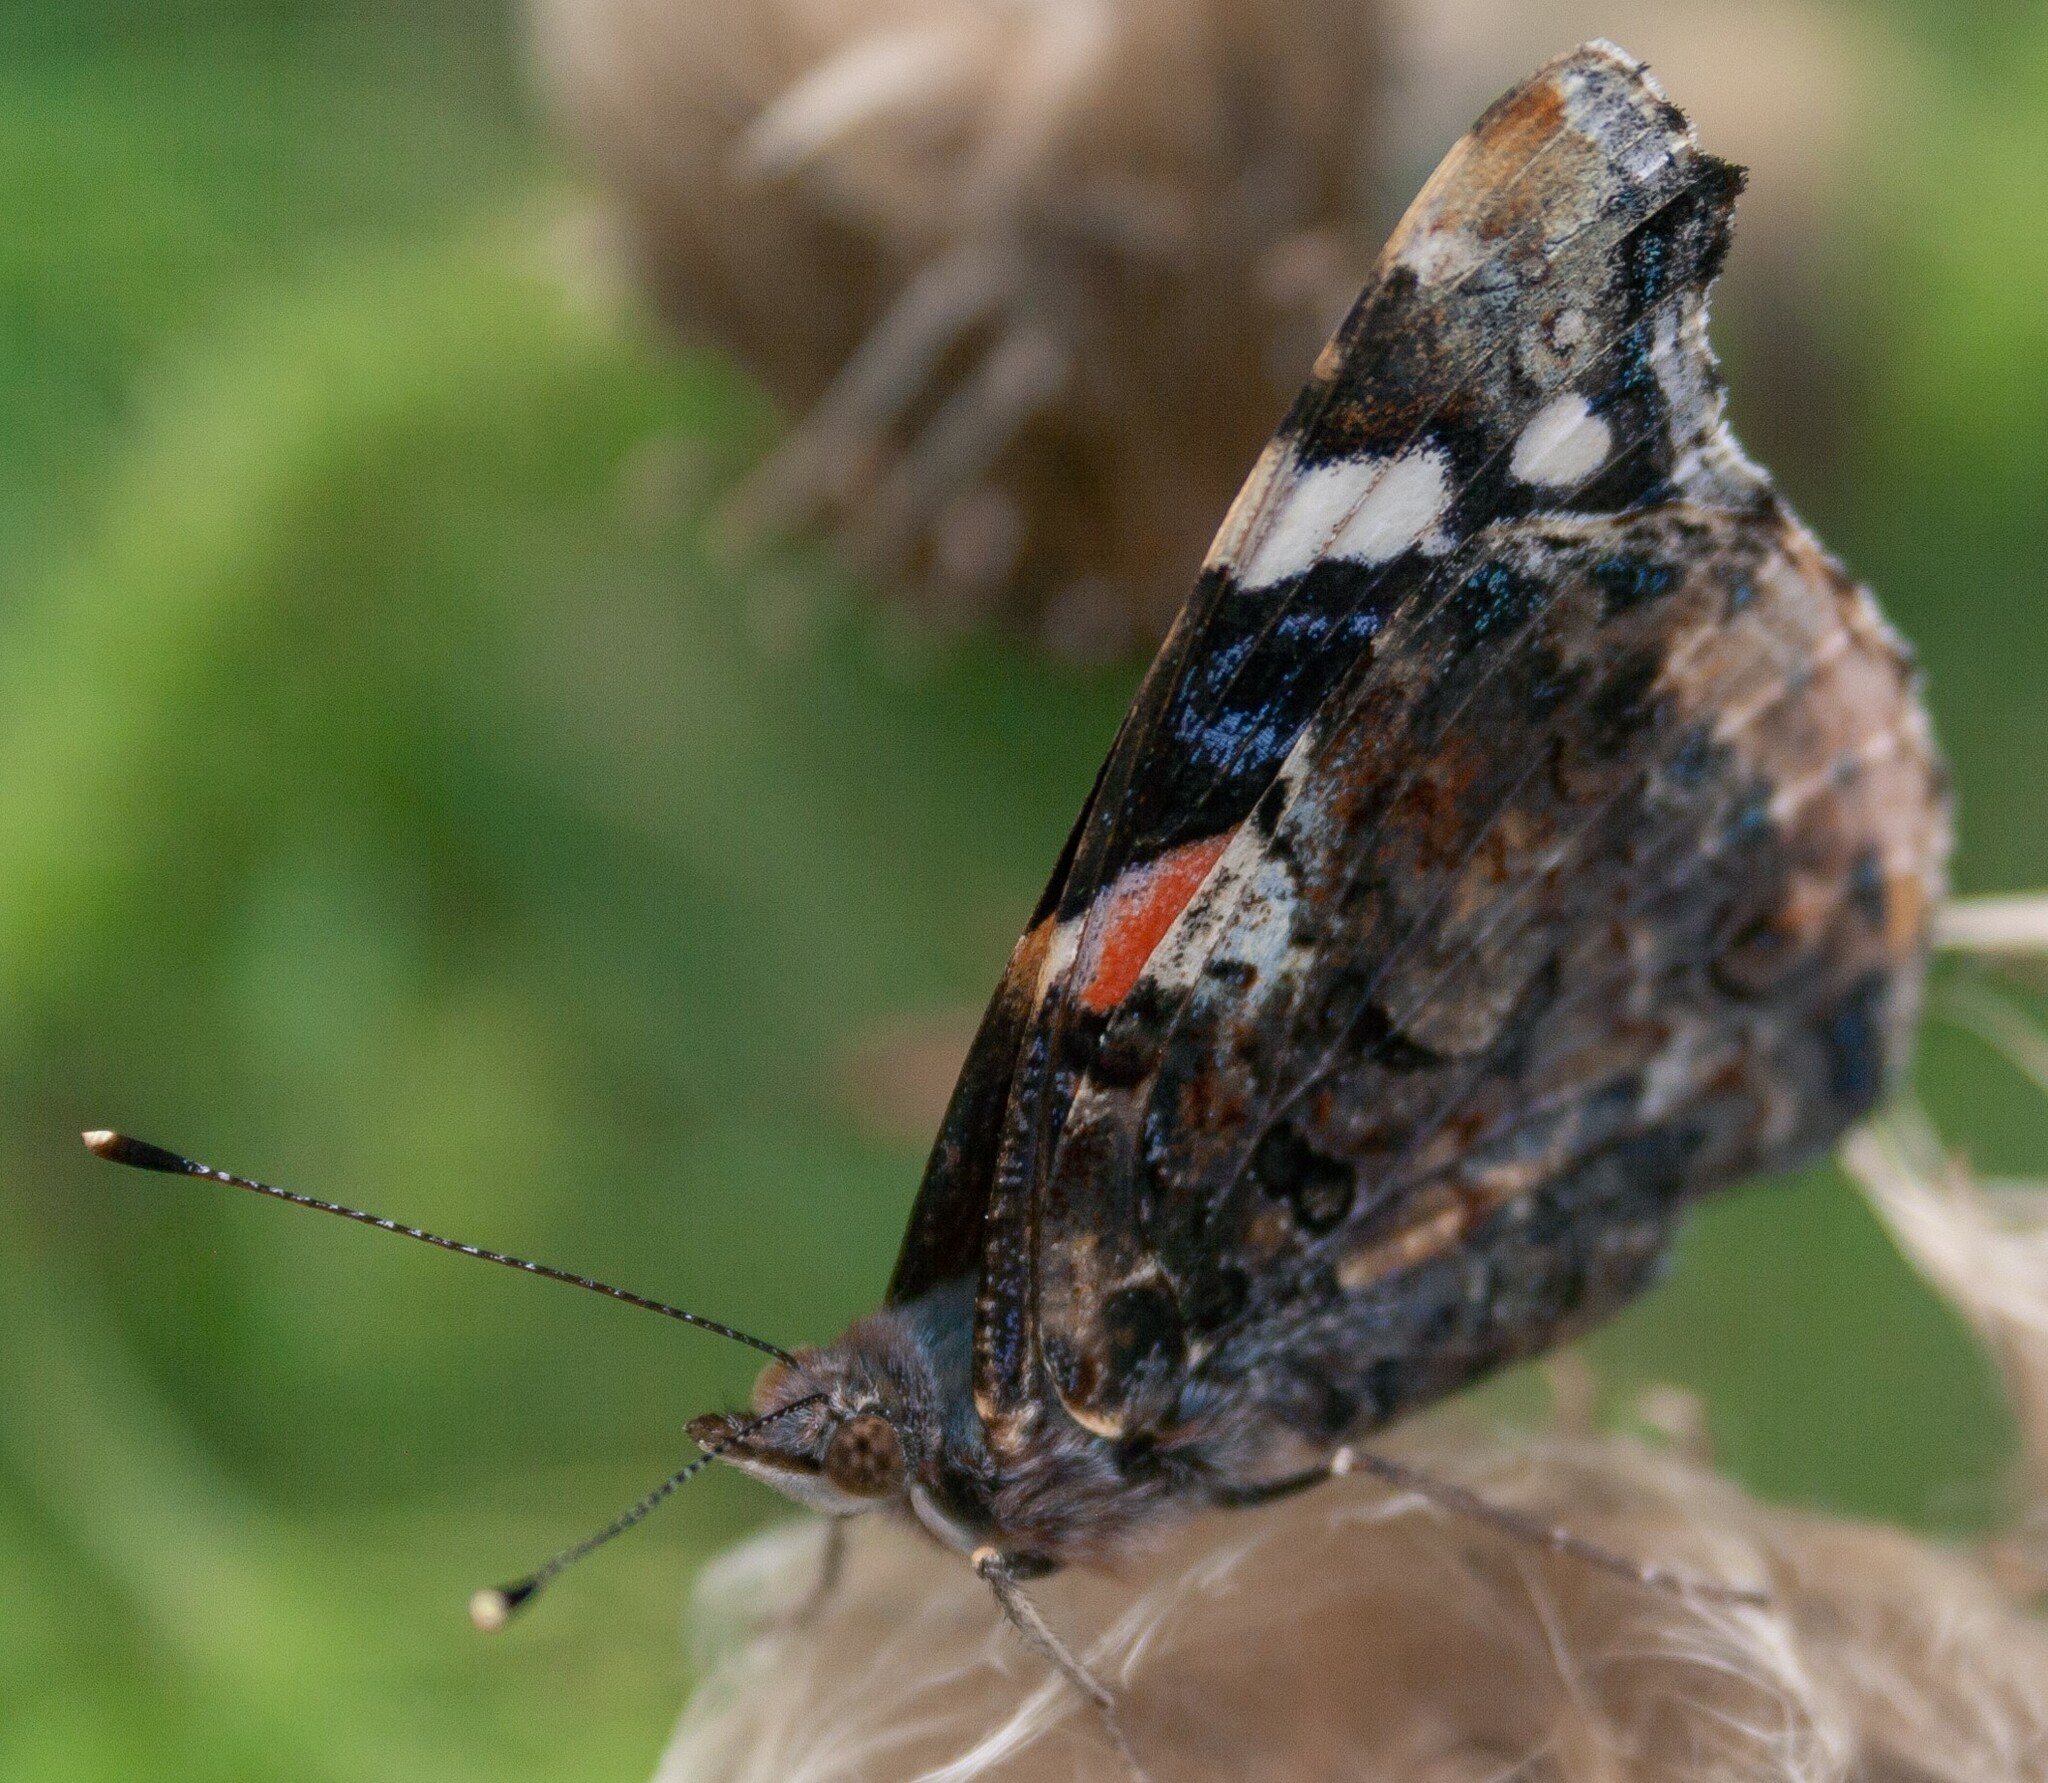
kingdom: Animalia
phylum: Arthropoda
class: Insecta
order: Lepidoptera
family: Nymphalidae
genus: Vanessa
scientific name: Vanessa atalanta
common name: Red admiral
